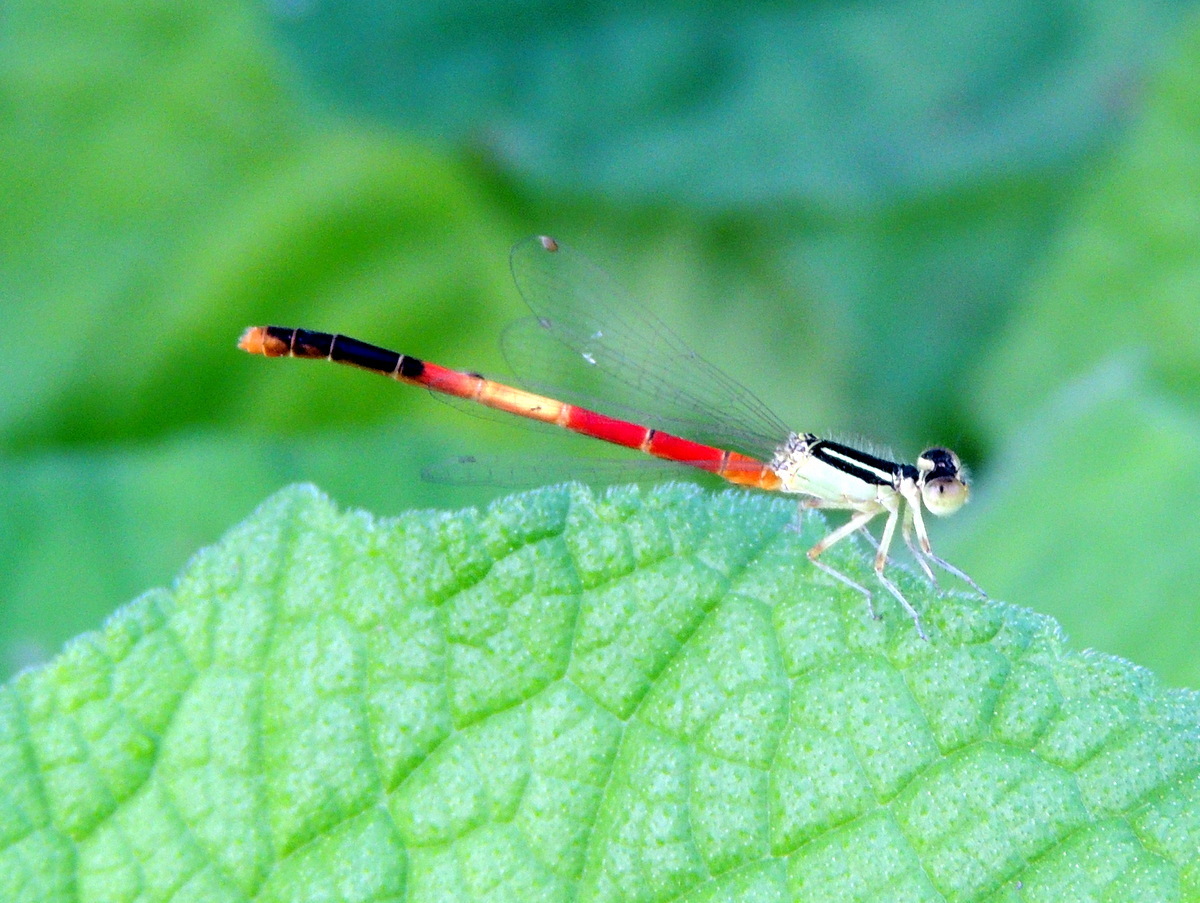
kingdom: Animalia
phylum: Arthropoda
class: Insecta
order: Odonata
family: Coenagrionidae
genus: Ischnura
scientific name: Ischnura nursei
